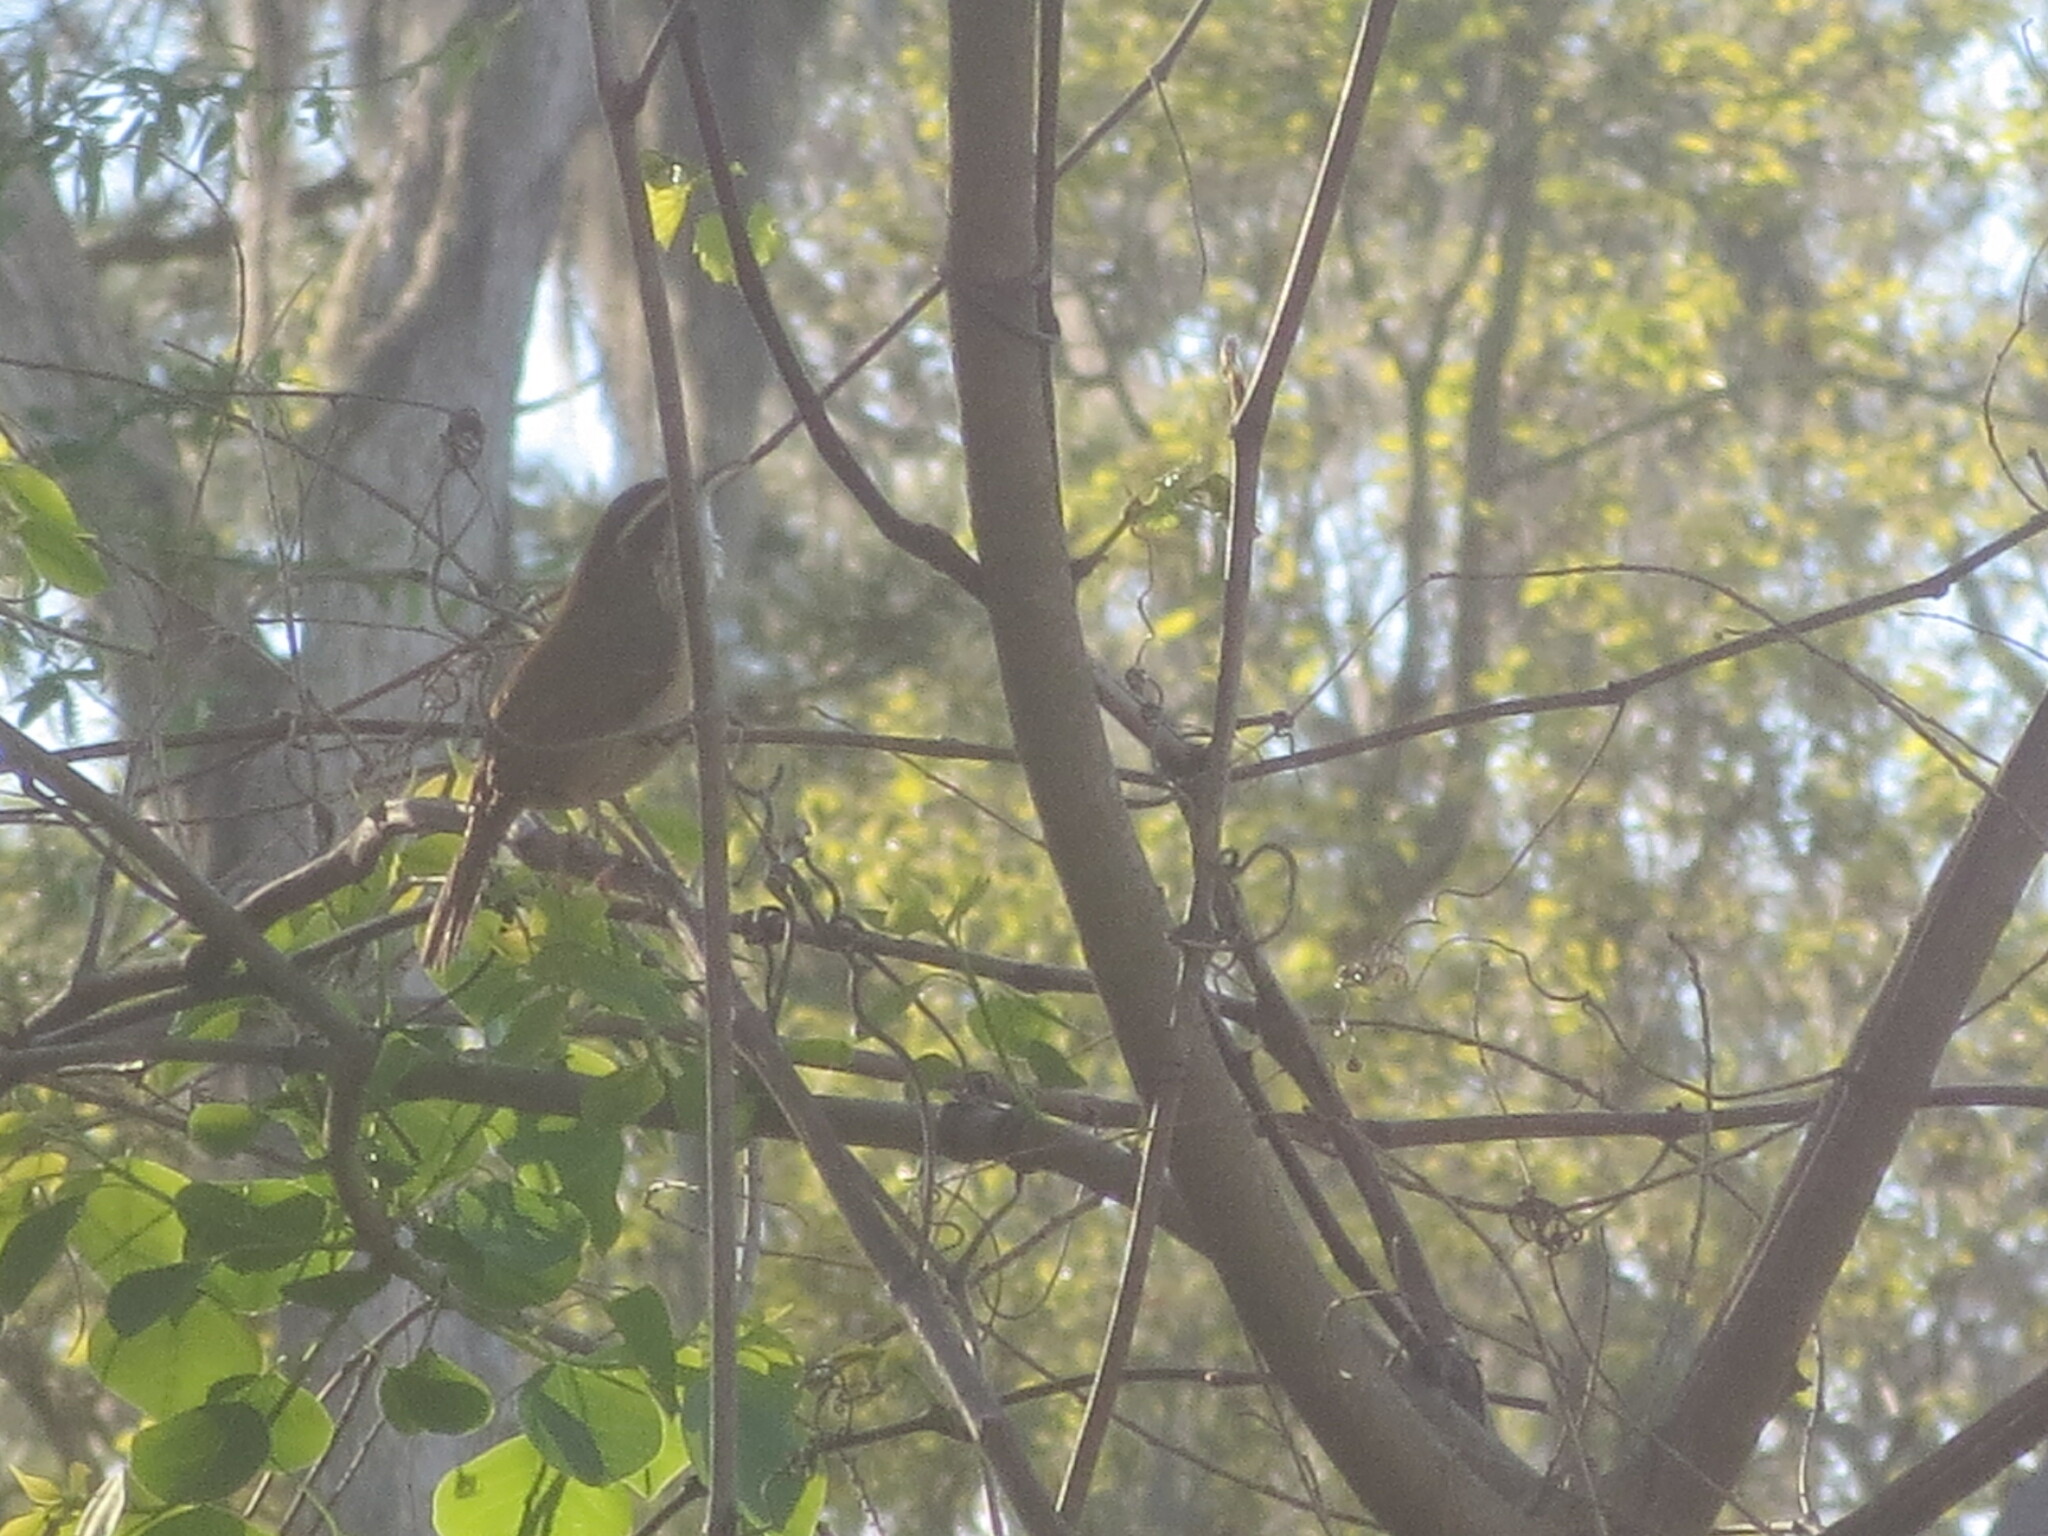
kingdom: Animalia
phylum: Chordata
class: Aves
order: Passeriformes
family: Troglodytidae
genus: Thryothorus
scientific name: Thryothorus ludovicianus
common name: Carolina wren
